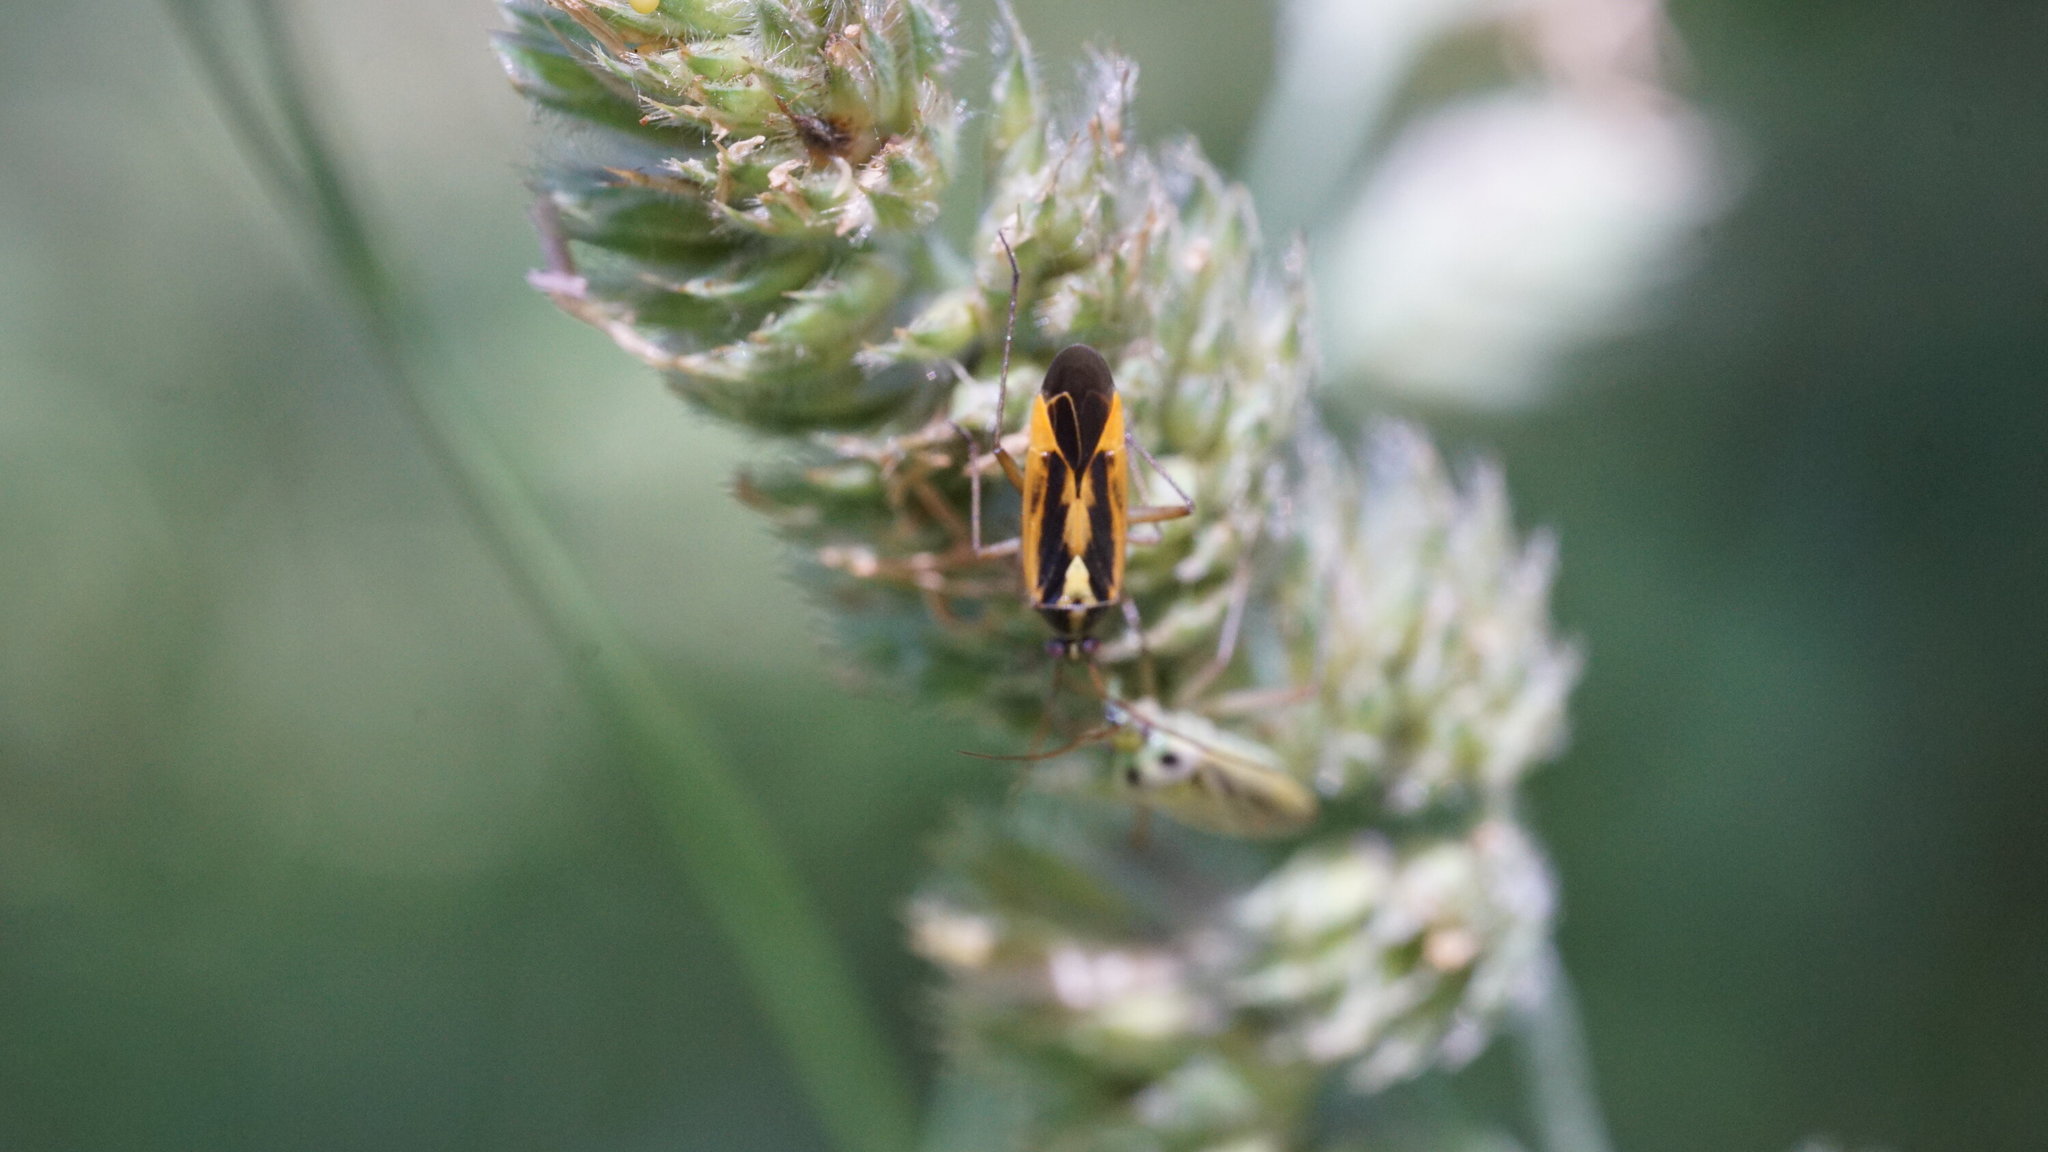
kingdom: Animalia
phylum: Arthropoda
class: Insecta
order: Hemiptera
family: Miridae
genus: Stenotus
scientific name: Stenotus binotatus
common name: Plant bug
